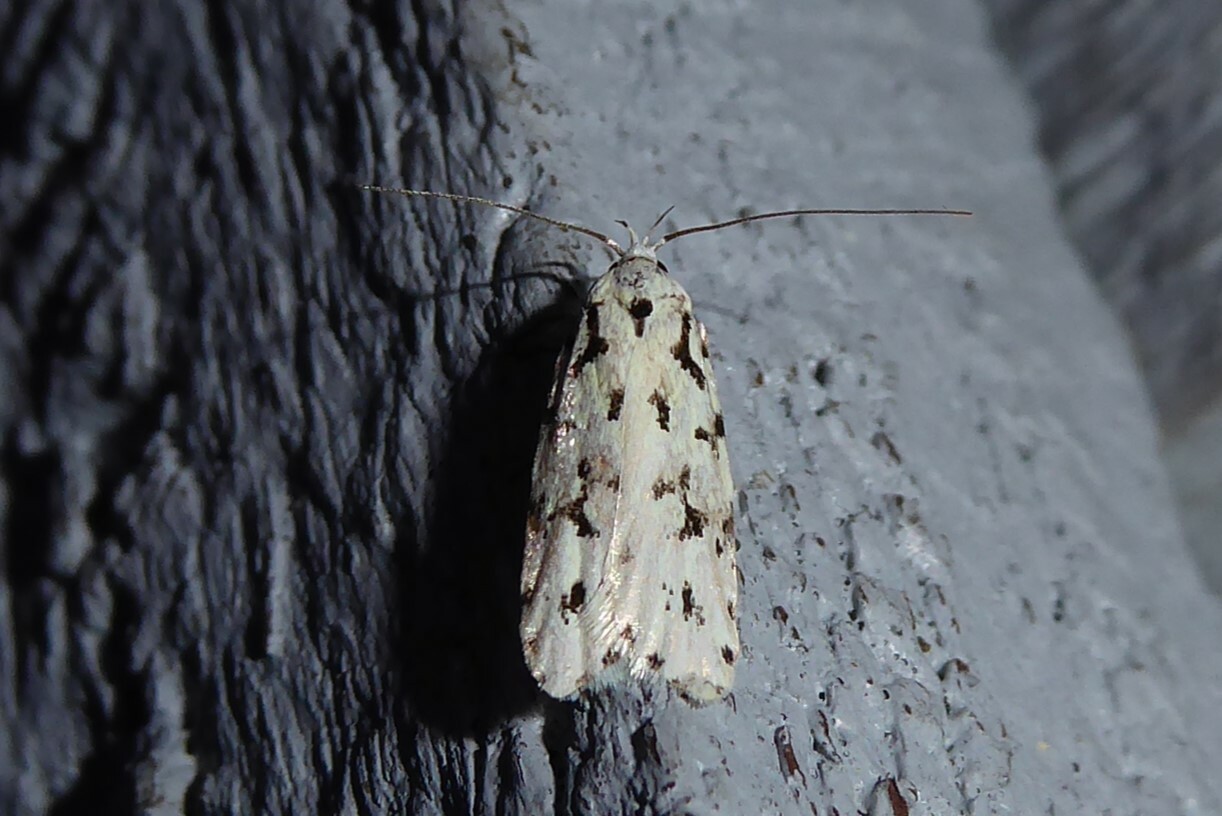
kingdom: Animalia
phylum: Arthropoda
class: Insecta
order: Lepidoptera
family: Oecophoridae
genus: Izatha
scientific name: Izatha huttoni
